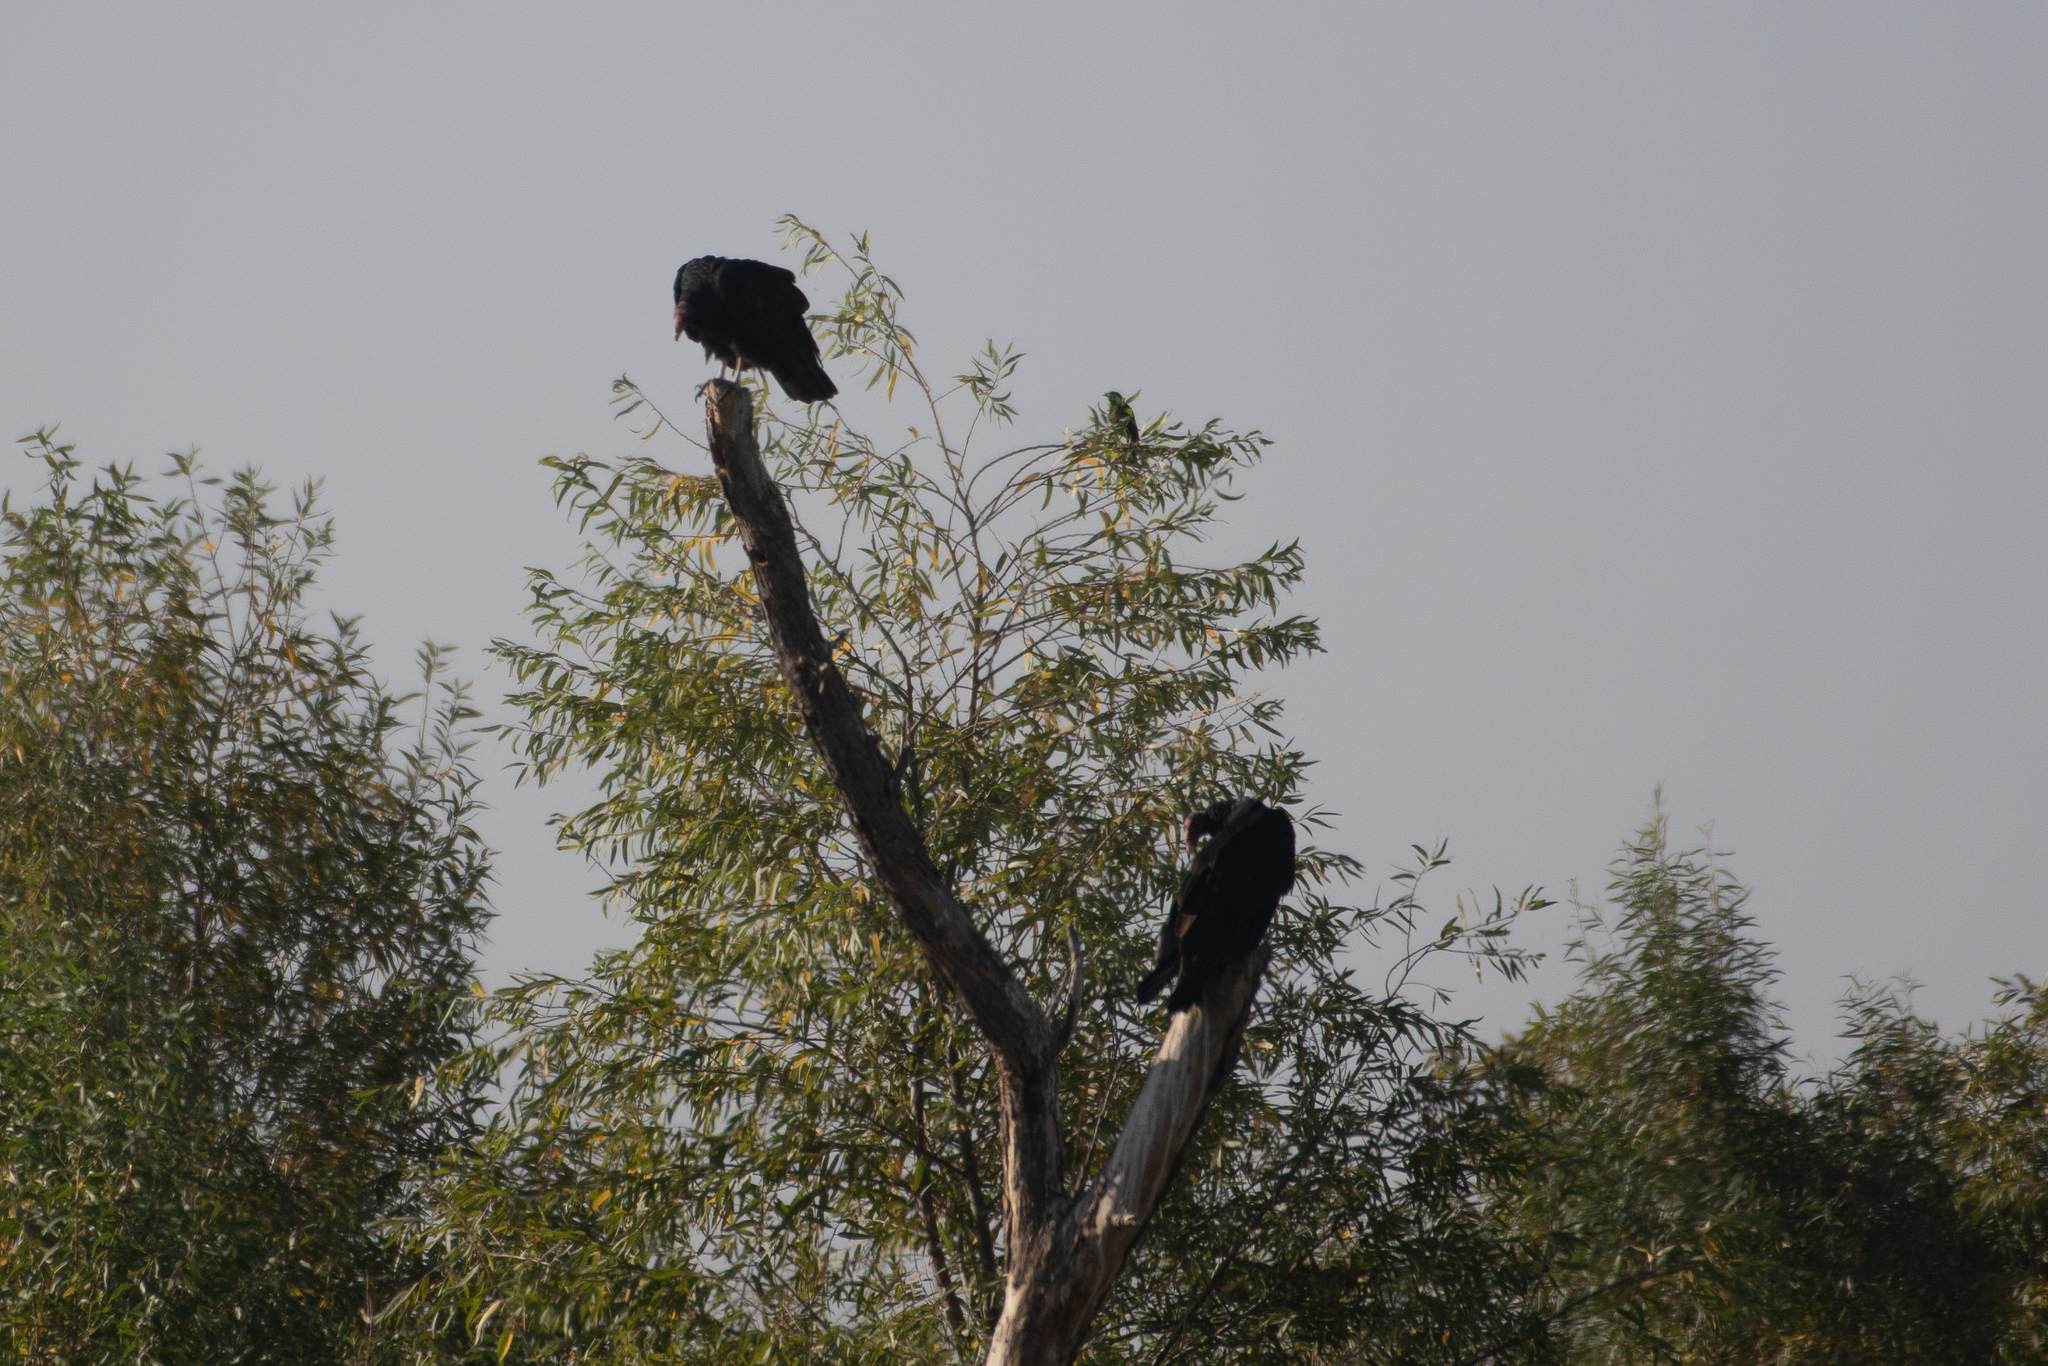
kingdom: Animalia
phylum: Chordata
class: Aves
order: Accipitriformes
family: Cathartidae
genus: Cathartes
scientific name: Cathartes aura
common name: Turkey vulture
